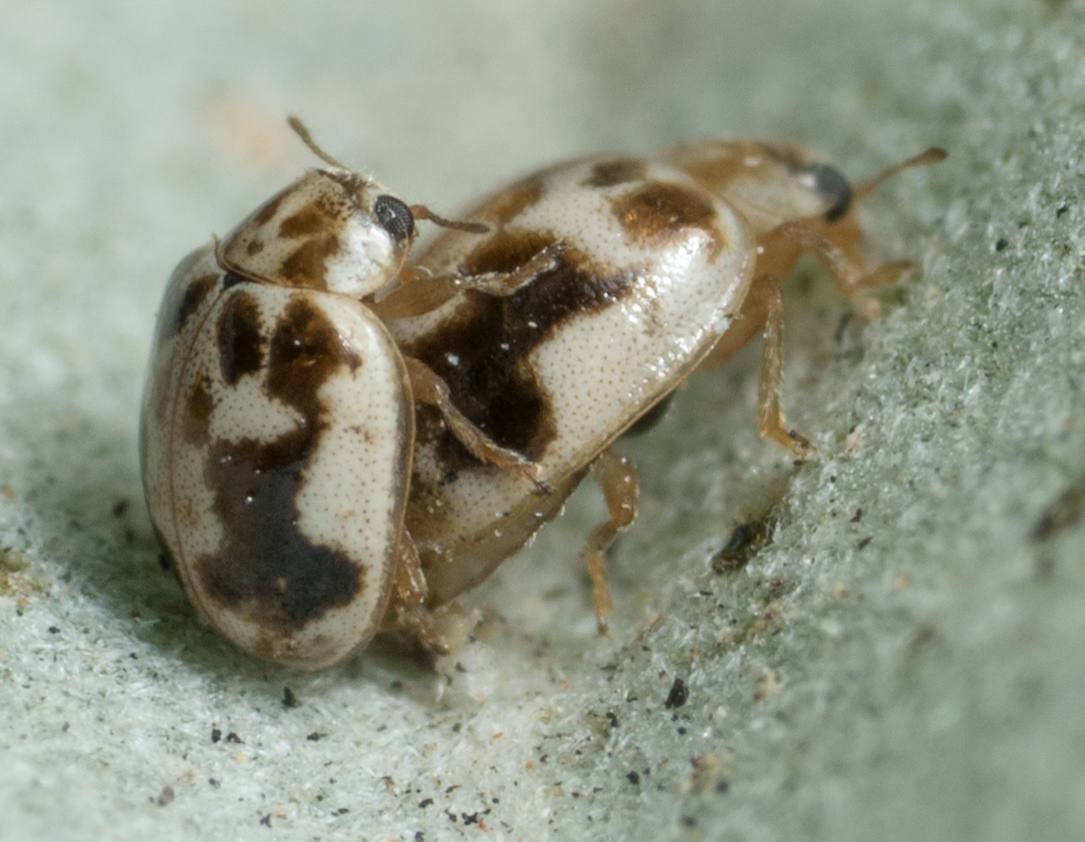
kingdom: Animalia
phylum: Arthropoda
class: Insecta
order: Coleoptera
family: Coccinellidae
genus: Psyllobora
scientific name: Psyllobora renifer
